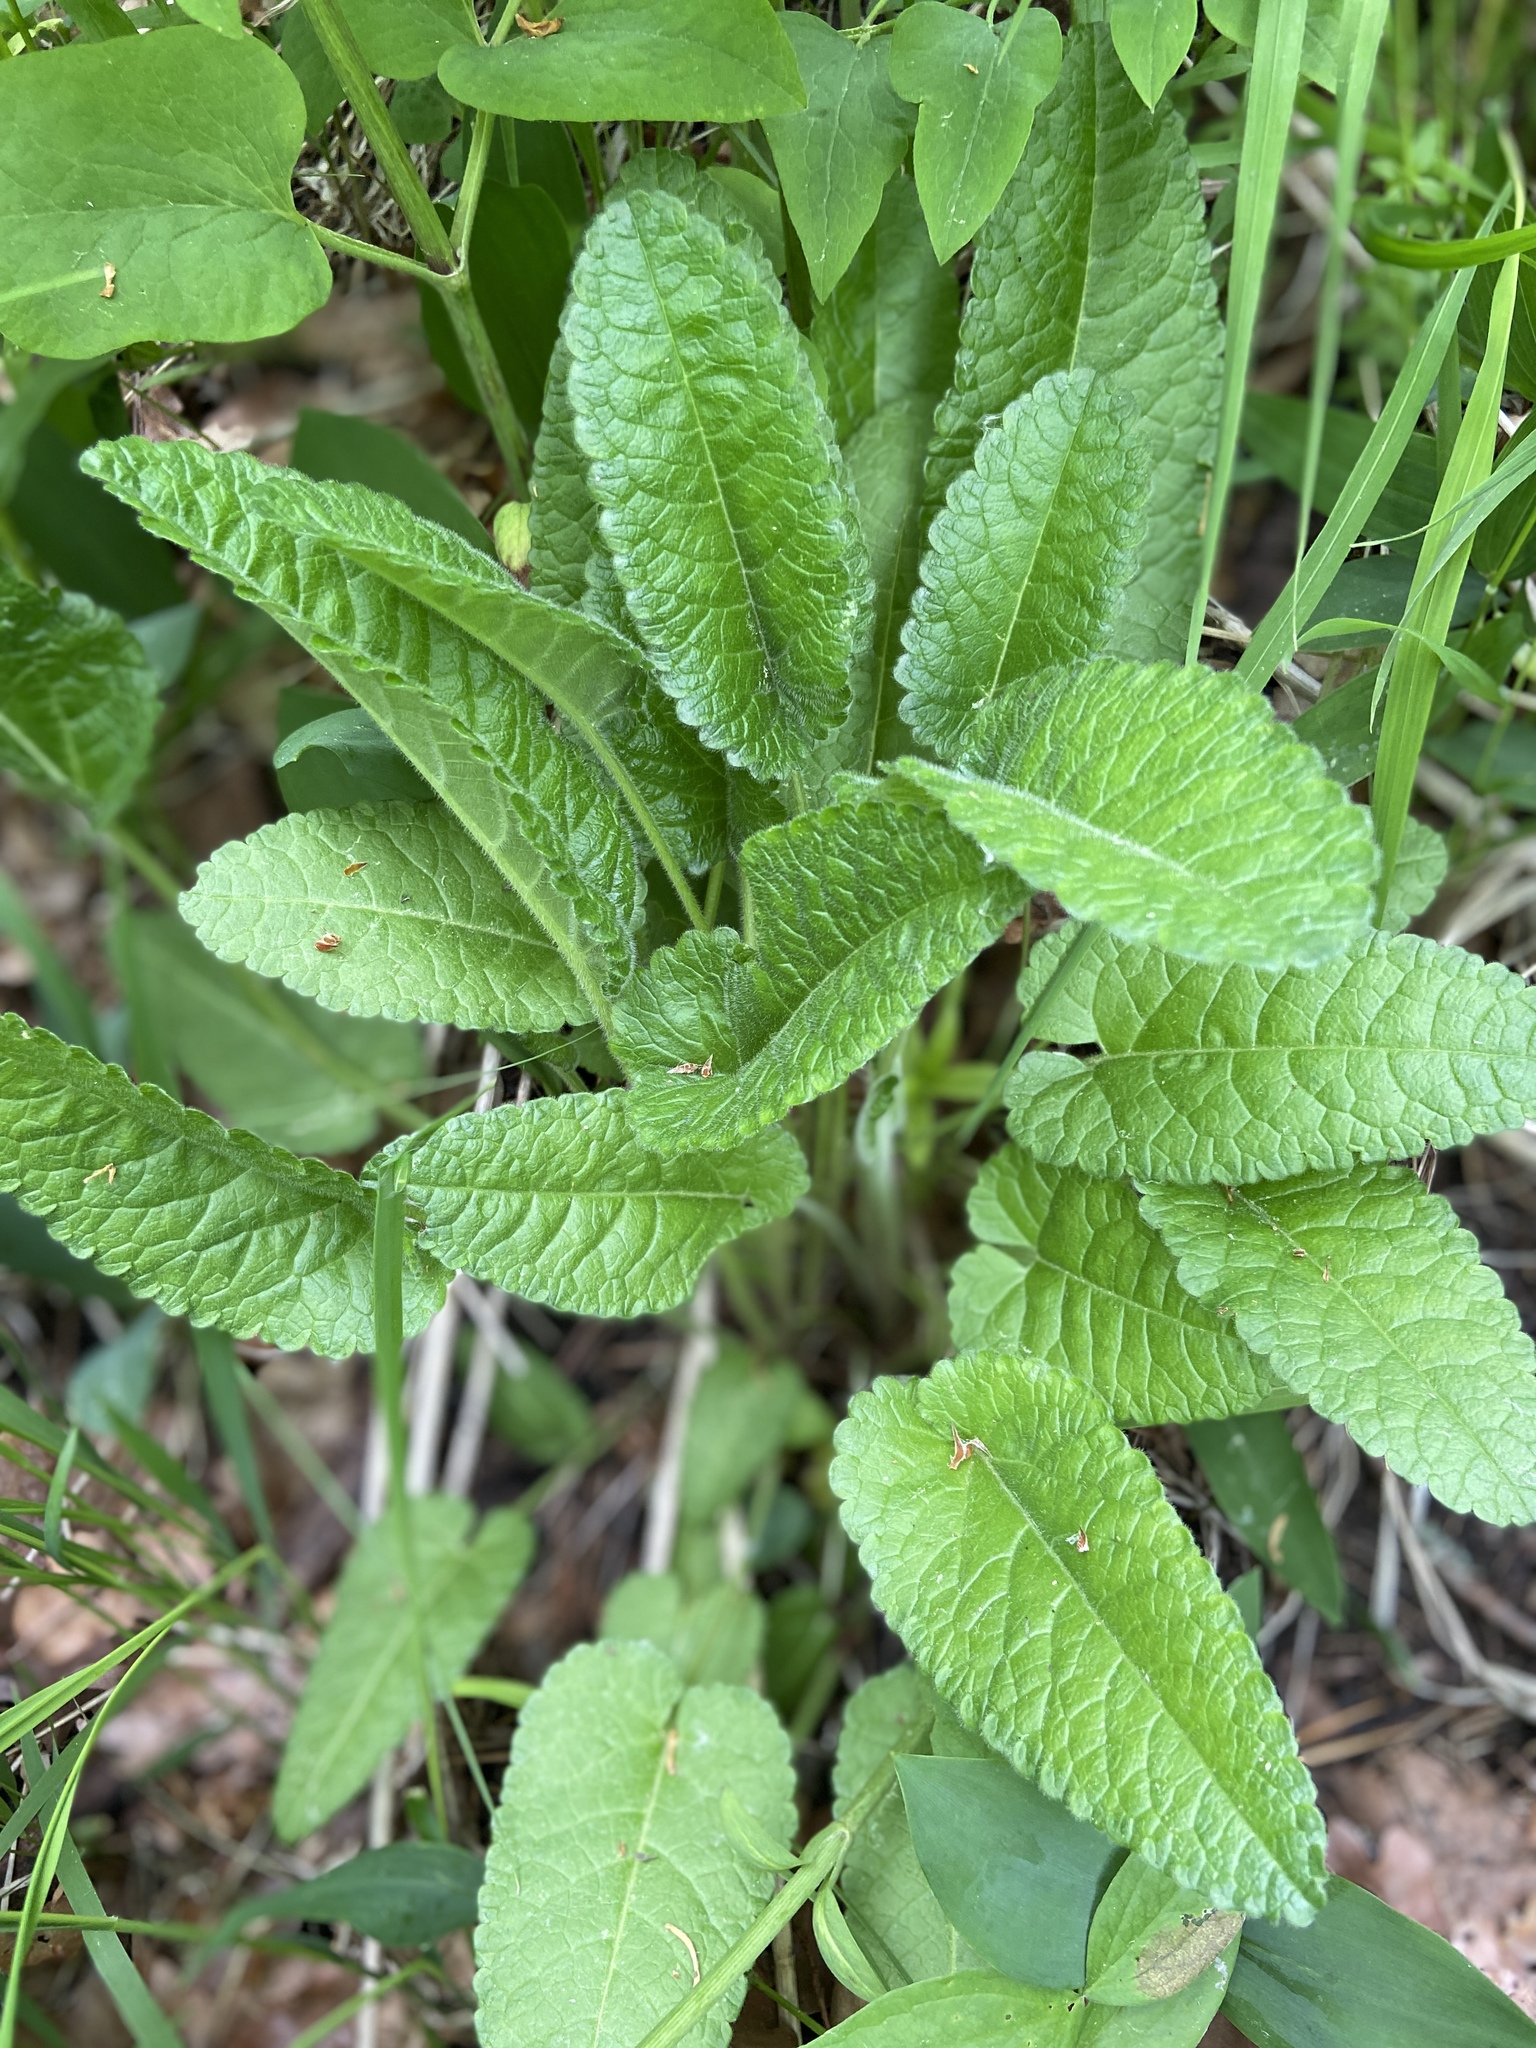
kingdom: Plantae
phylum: Tracheophyta
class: Magnoliopsida
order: Lamiales
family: Lamiaceae
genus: Betonica
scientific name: Betonica officinalis
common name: Bishop's-wort
